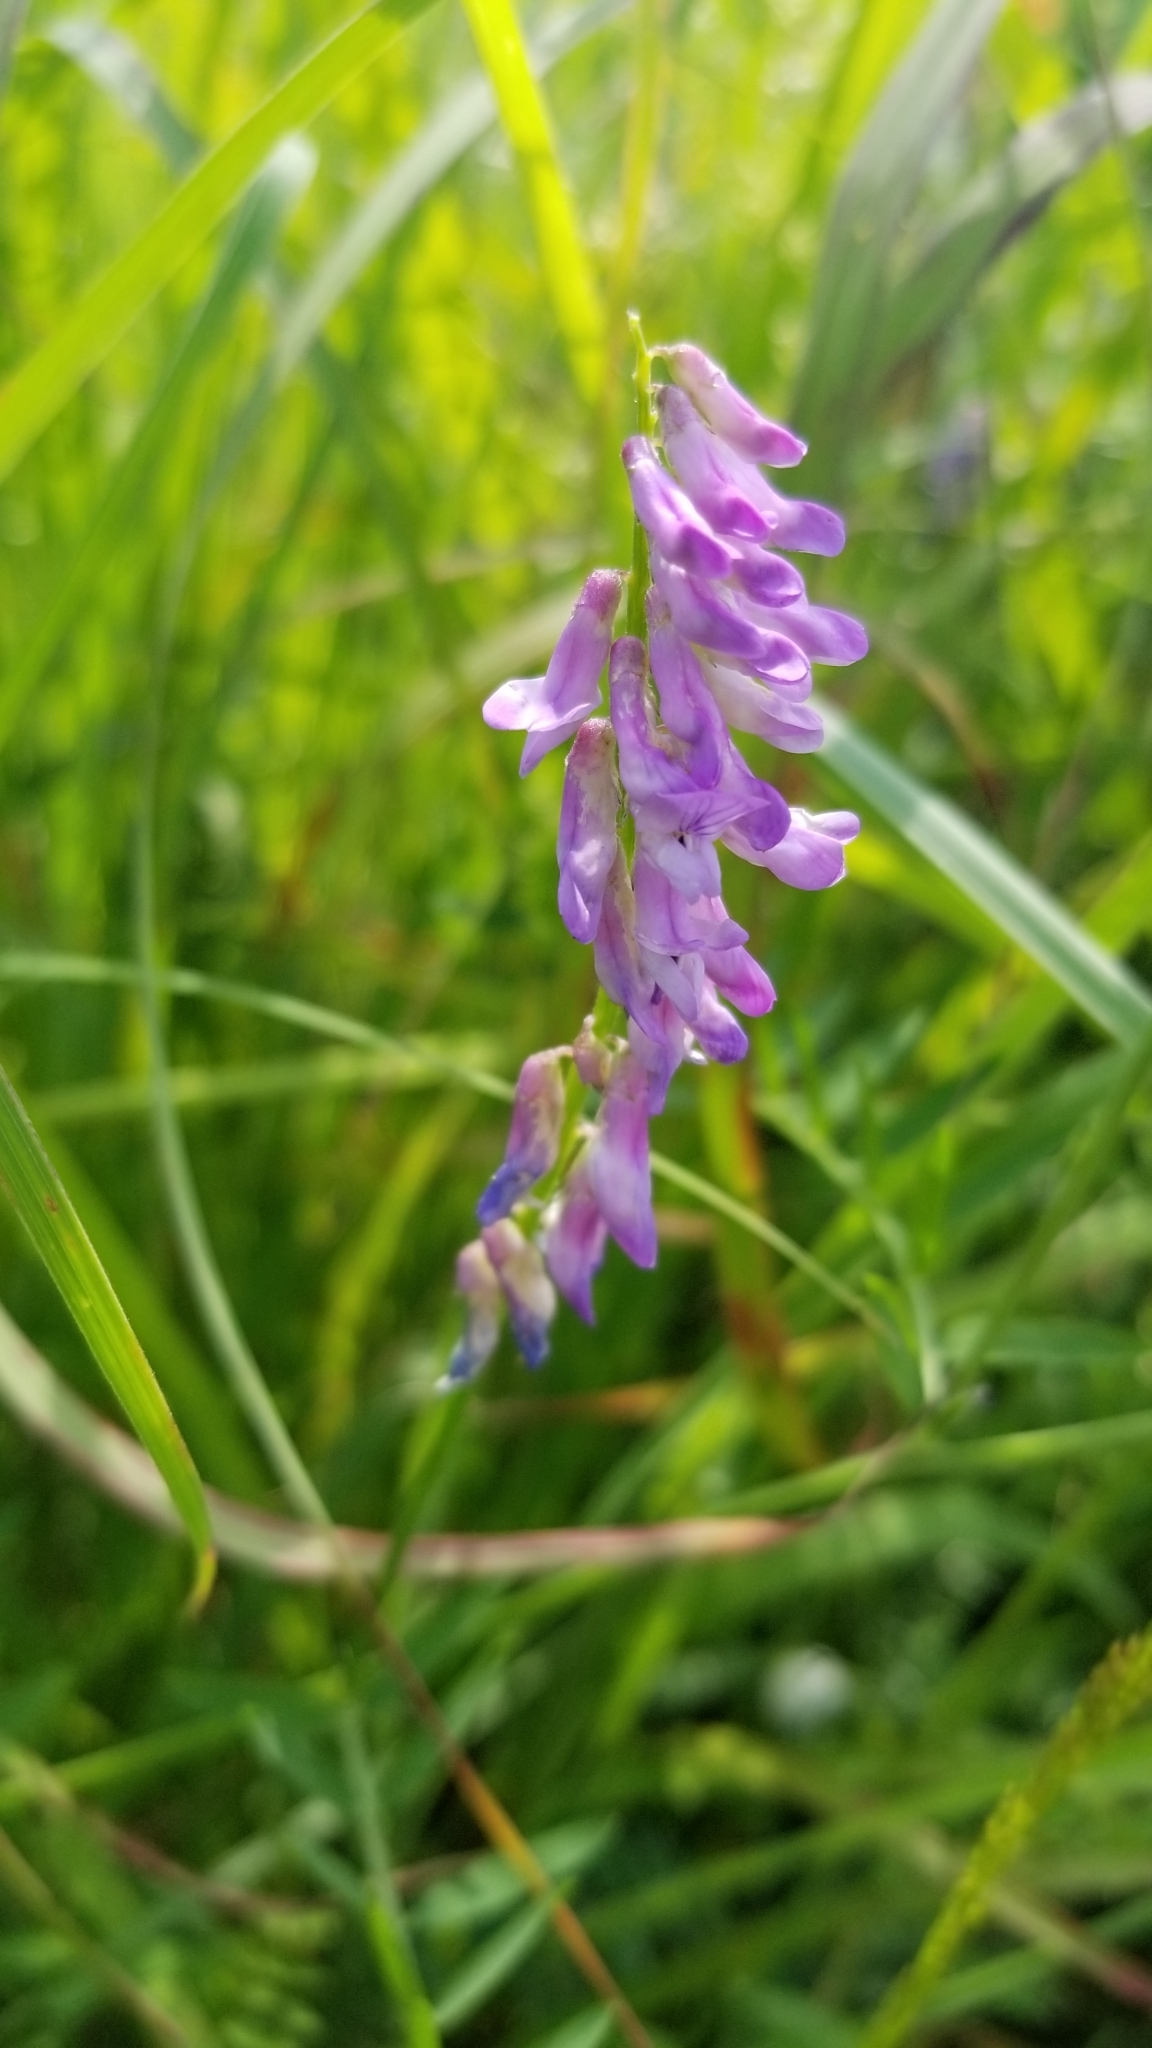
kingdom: Plantae
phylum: Tracheophyta
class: Magnoliopsida
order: Fabales
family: Fabaceae
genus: Vicia
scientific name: Vicia cracca
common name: Bird vetch
